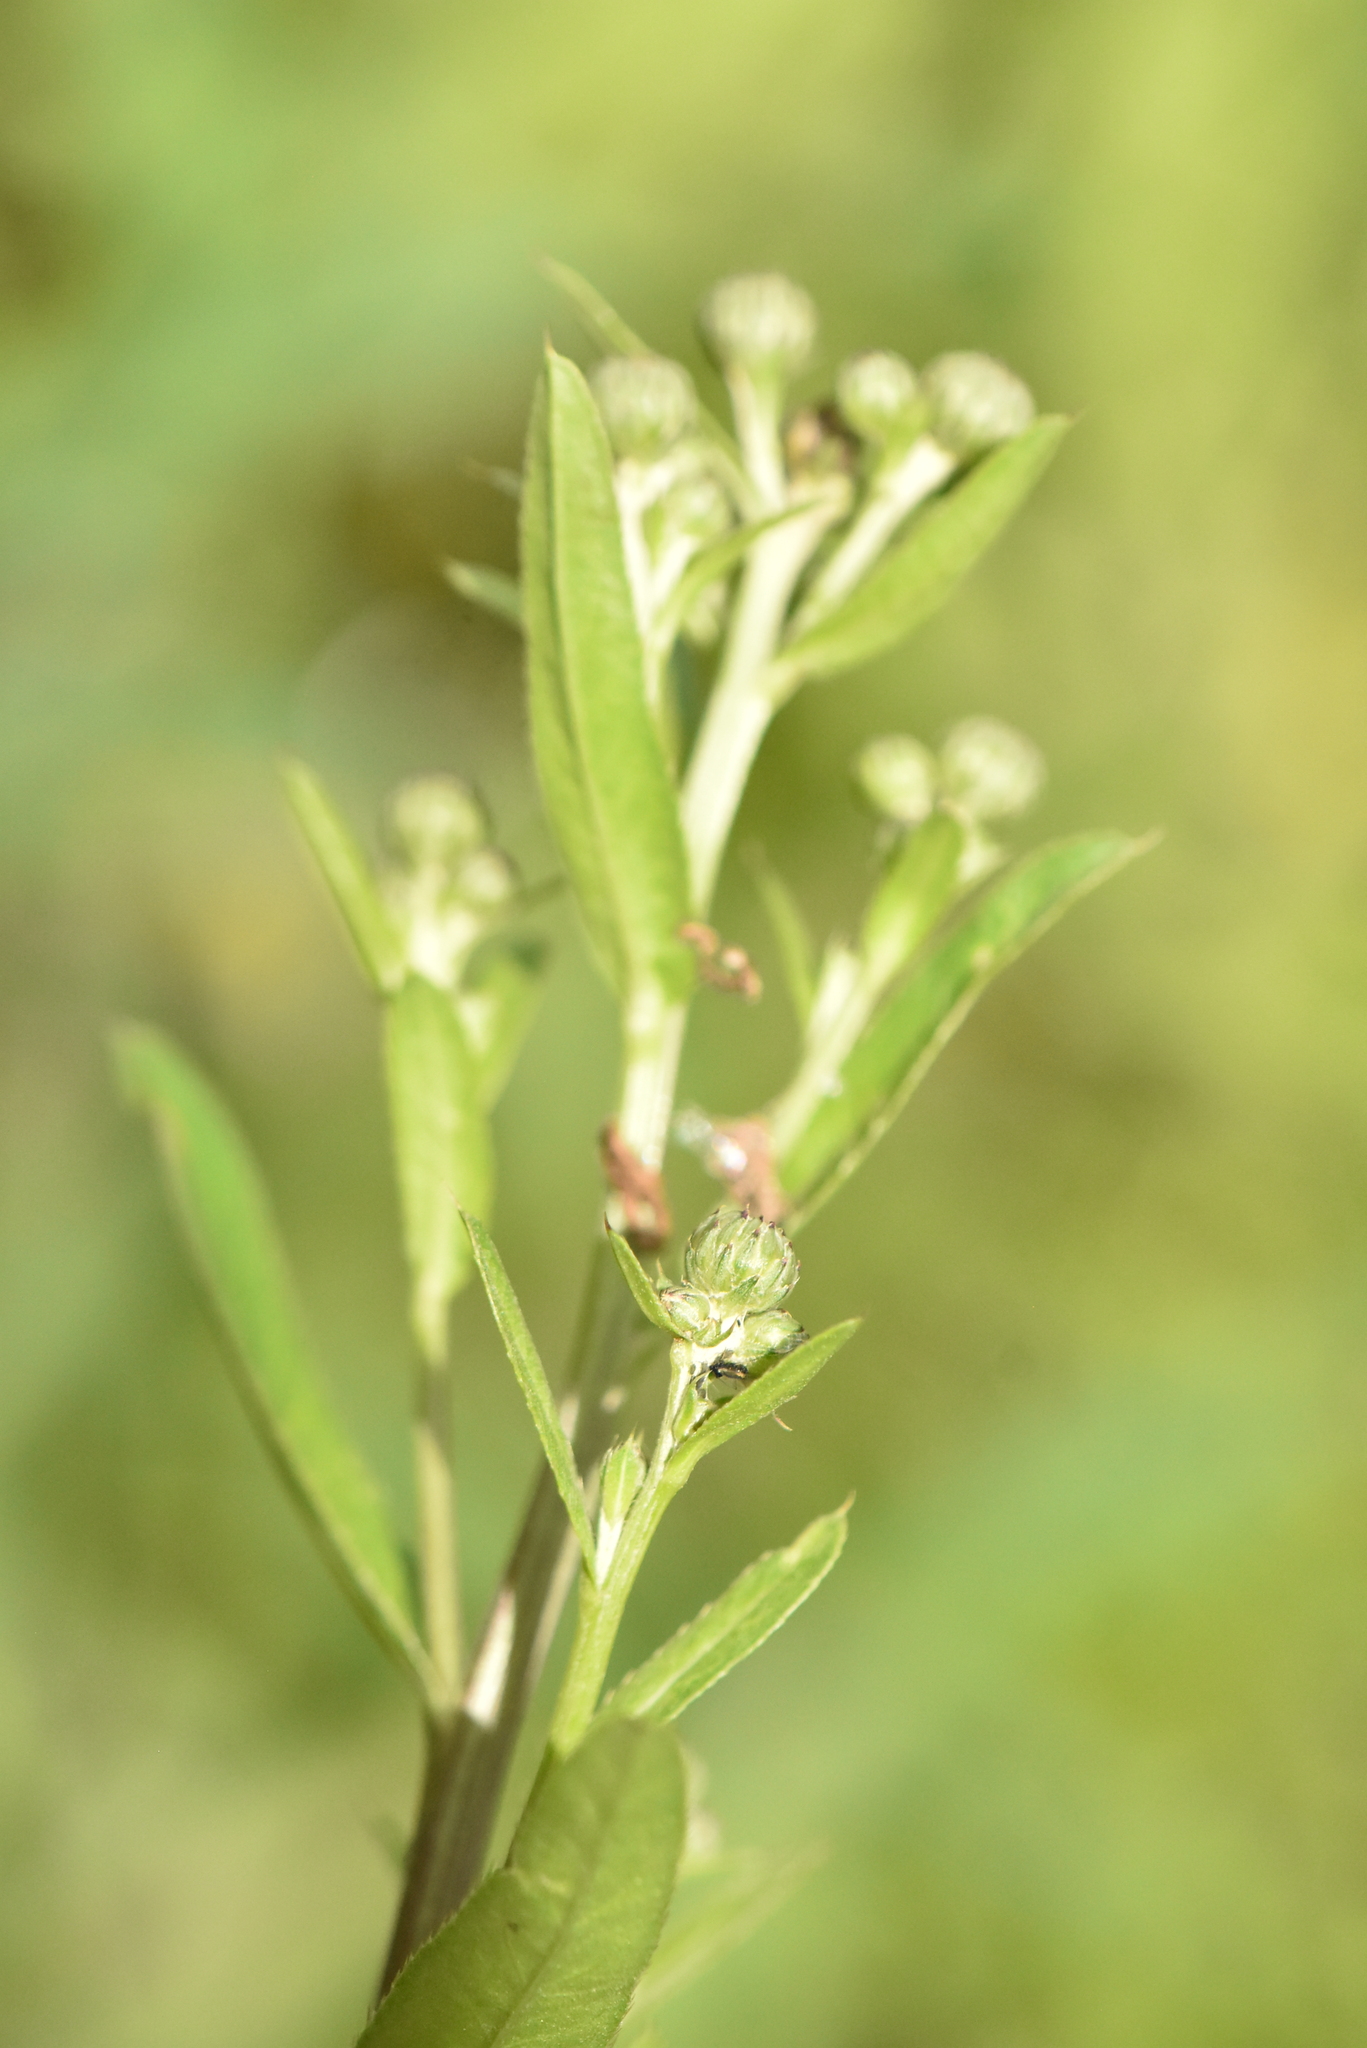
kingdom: Plantae
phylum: Tracheophyta
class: Magnoliopsida
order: Asterales
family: Asteraceae
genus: Cirsium
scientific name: Cirsium arvense
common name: Creeping thistle
